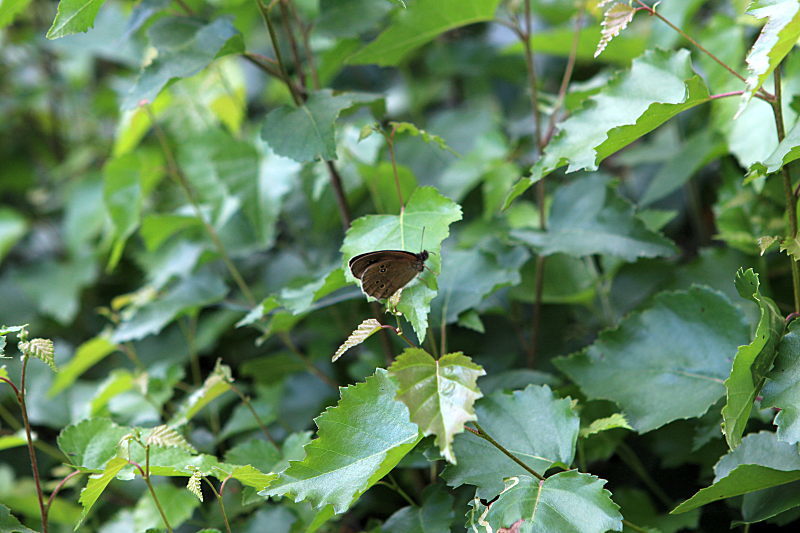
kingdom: Animalia
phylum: Arthropoda
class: Insecta
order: Lepidoptera
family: Nymphalidae
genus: Aphantopus
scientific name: Aphantopus hyperantus
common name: Ringlet
